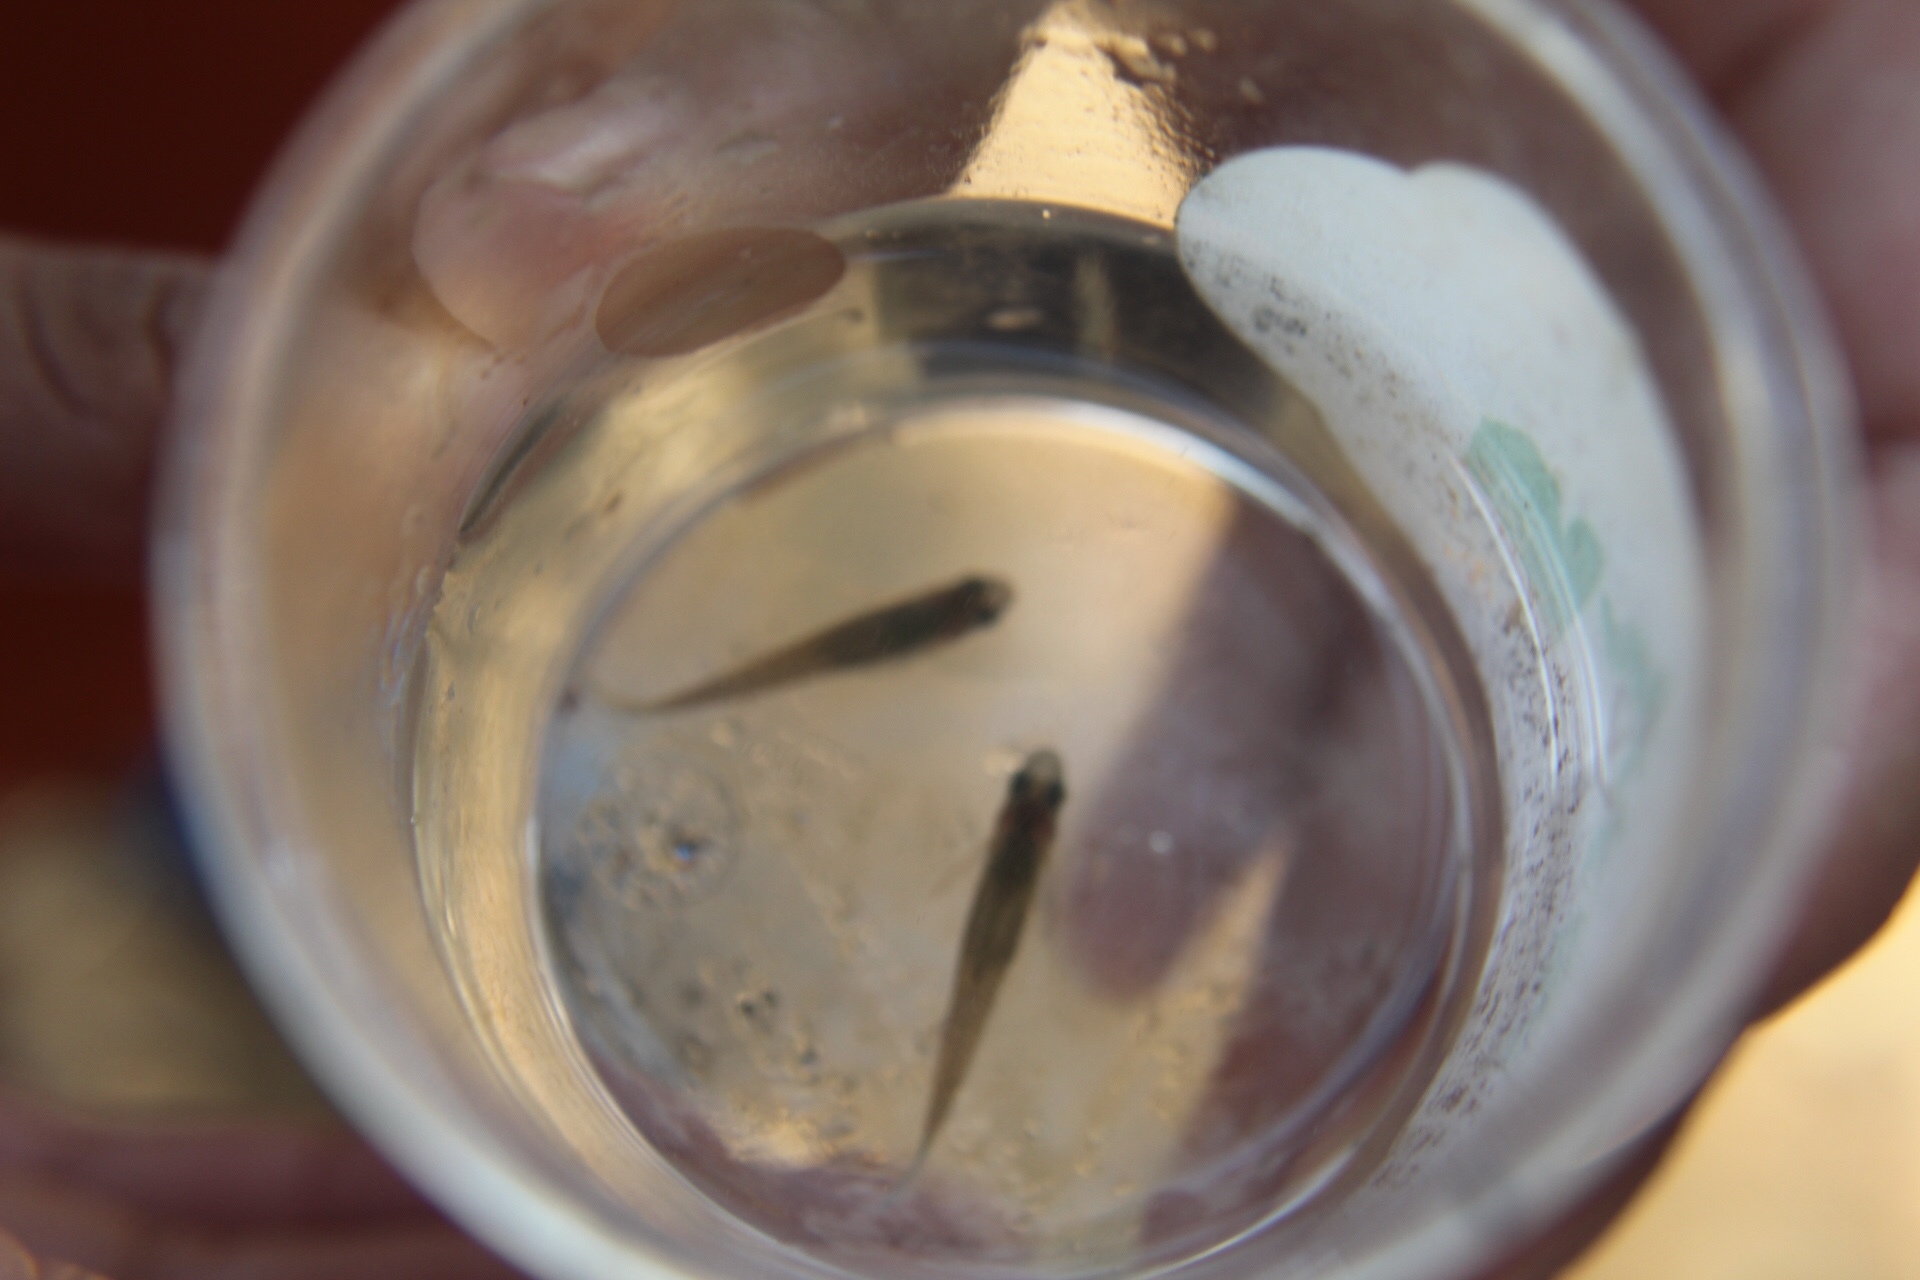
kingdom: Animalia
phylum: Chordata
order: Cyprinodontiformes
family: Poeciliidae
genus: Gambusia
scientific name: Gambusia affinis
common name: Mosquitofish
